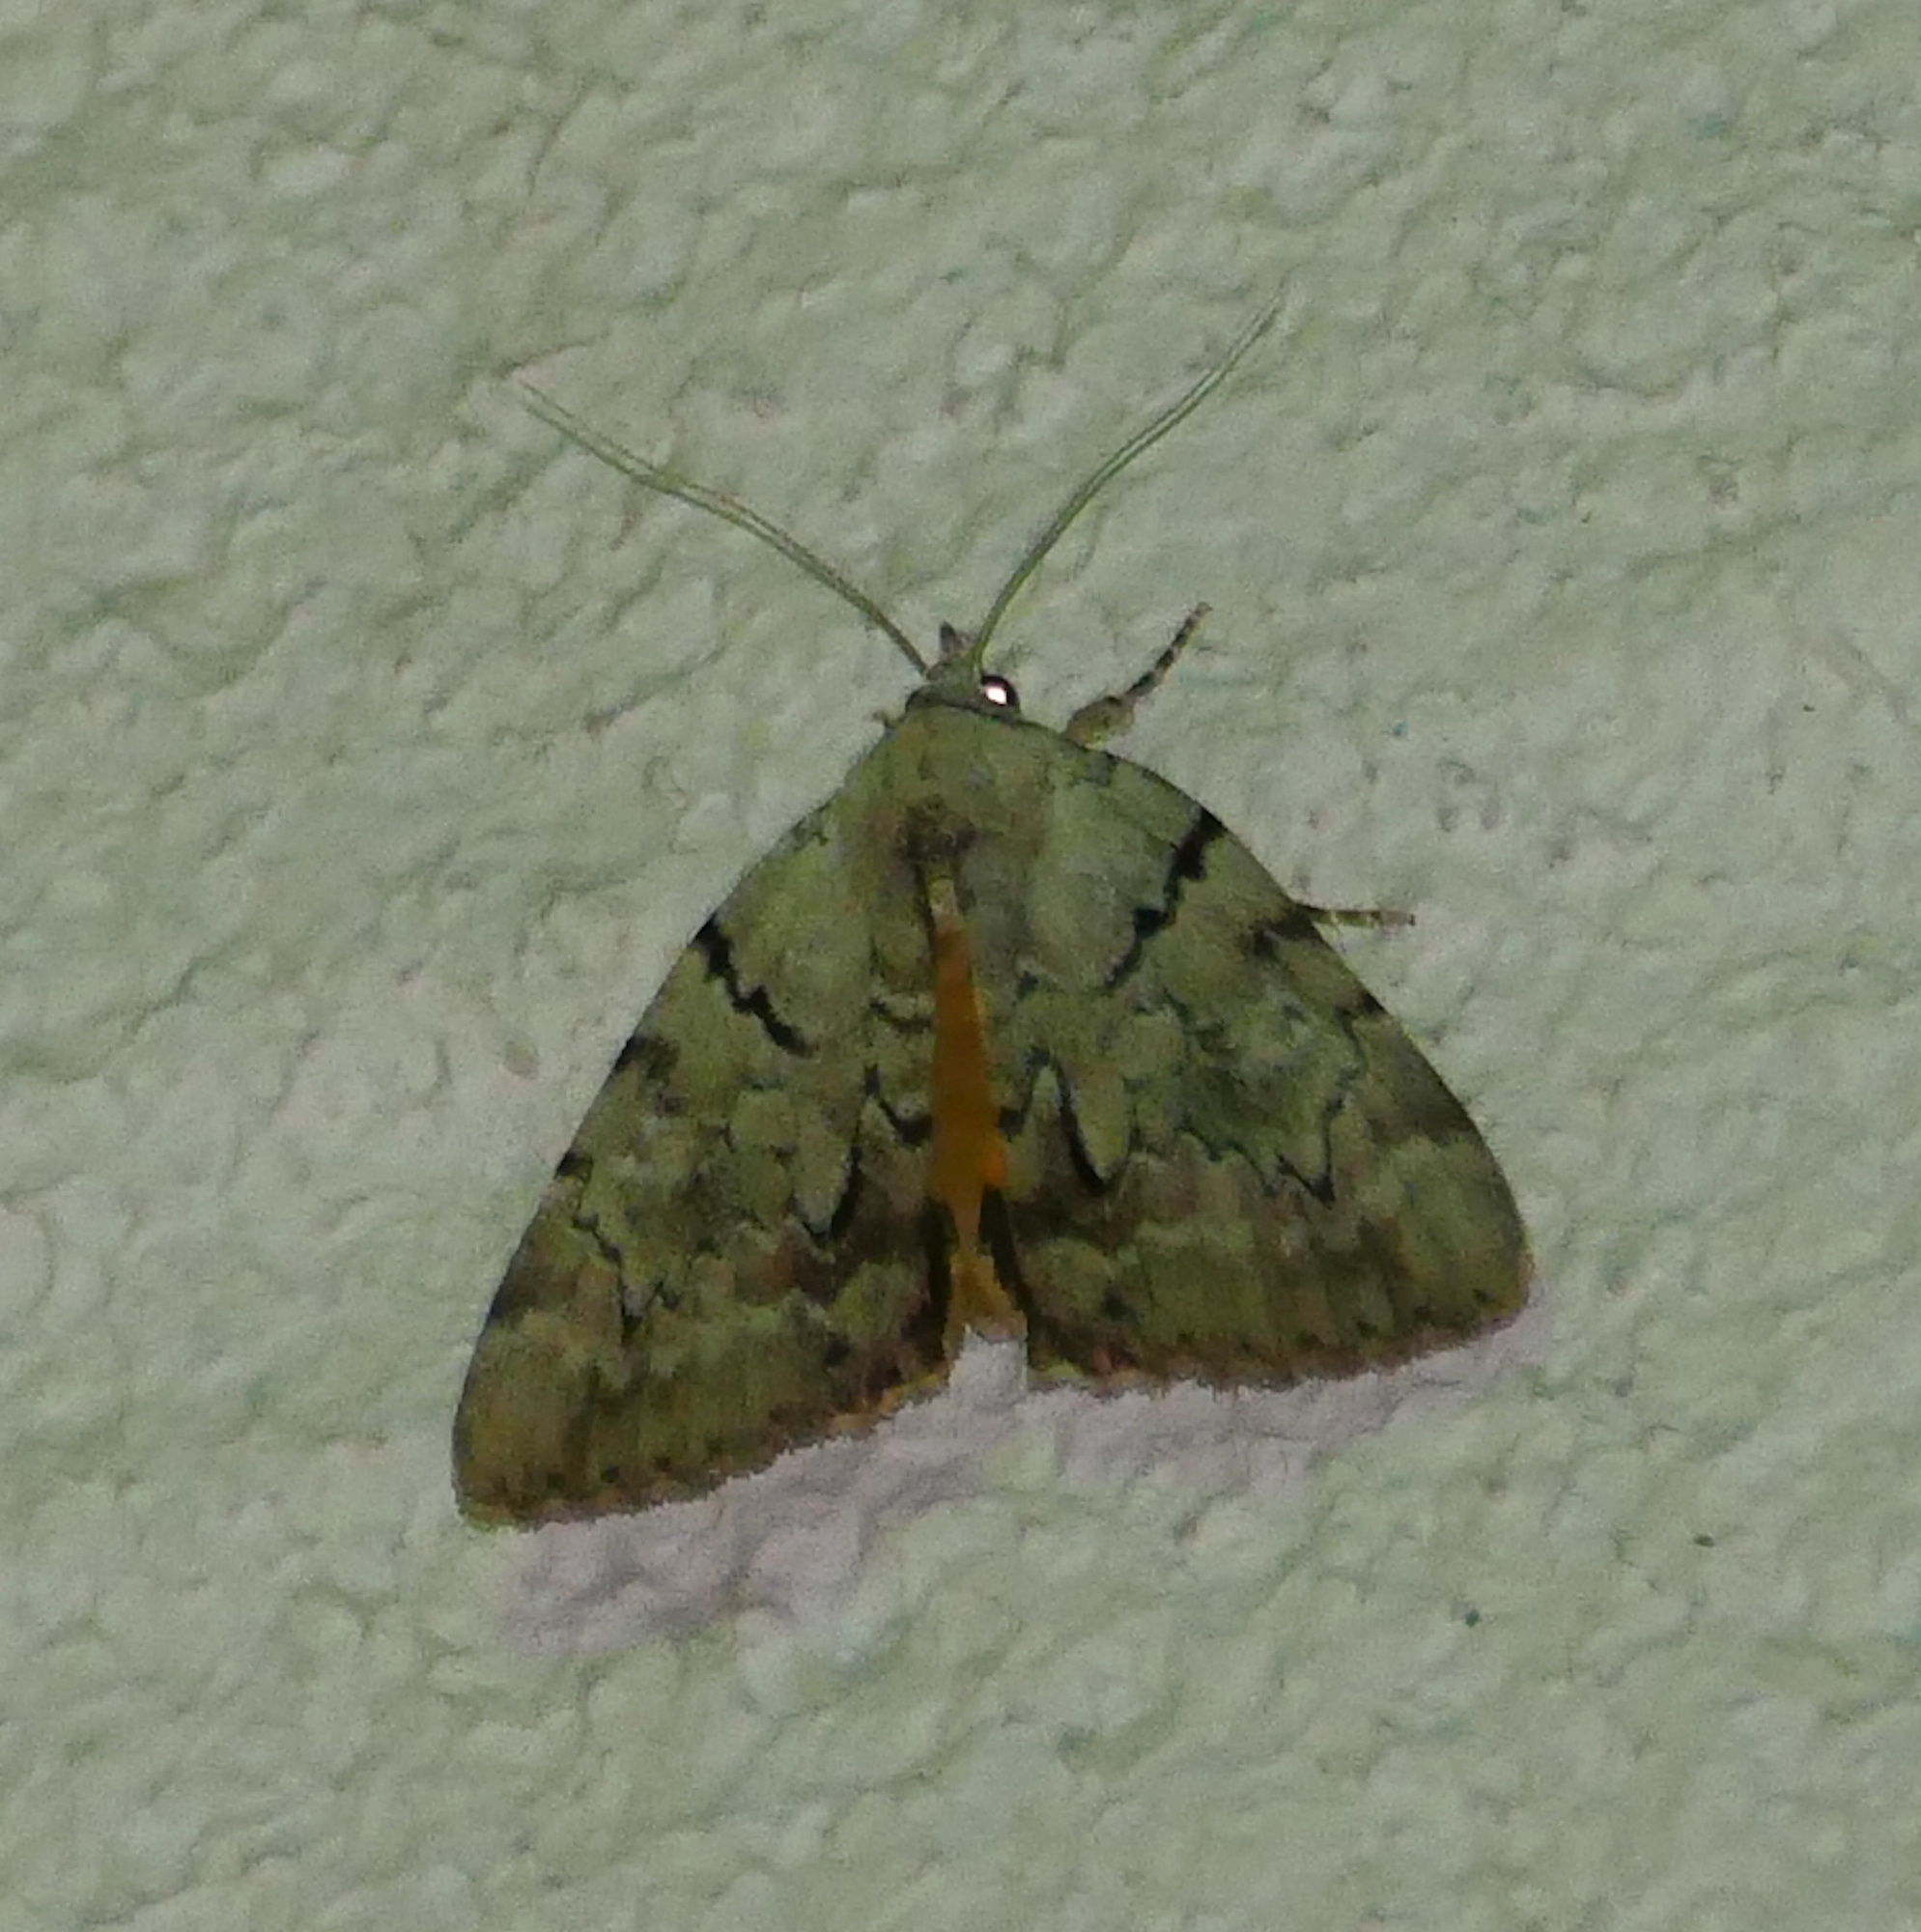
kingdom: Animalia
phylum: Arthropoda
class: Insecta
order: Lepidoptera
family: Erebidae
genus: Catocala
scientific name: Catocala alabamae
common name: Alabama underwing
